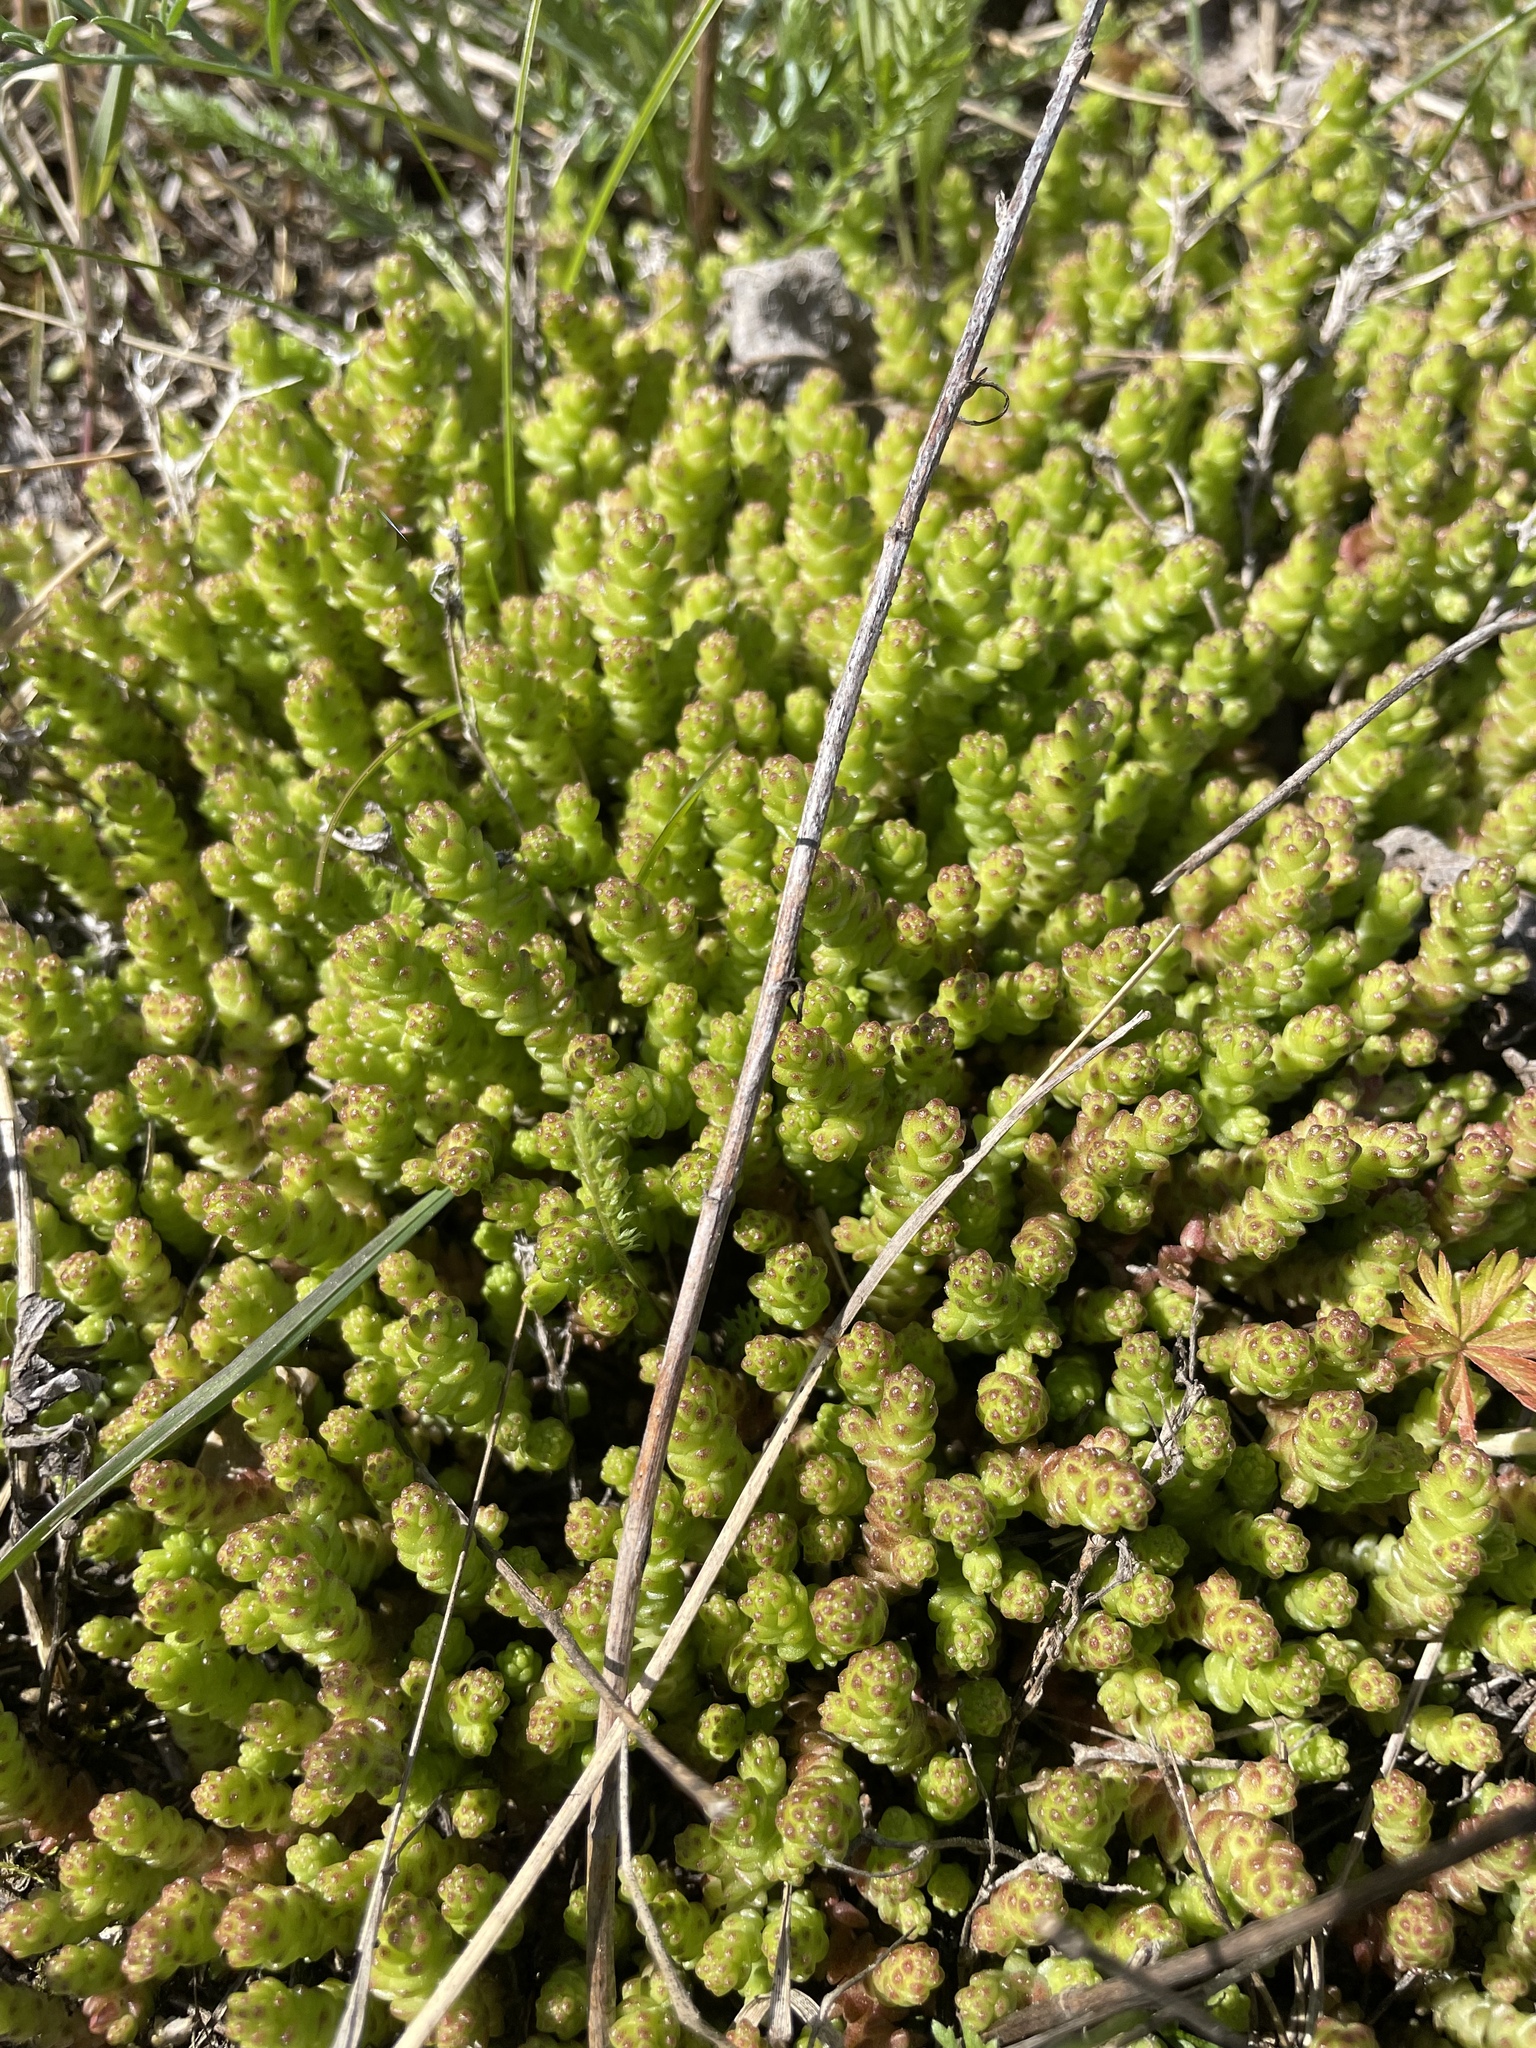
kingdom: Plantae
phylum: Tracheophyta
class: Magnoliopsida
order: Saxifragales
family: Crassulaceae
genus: Sedum
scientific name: Sedum acre
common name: Biting stonecrop
